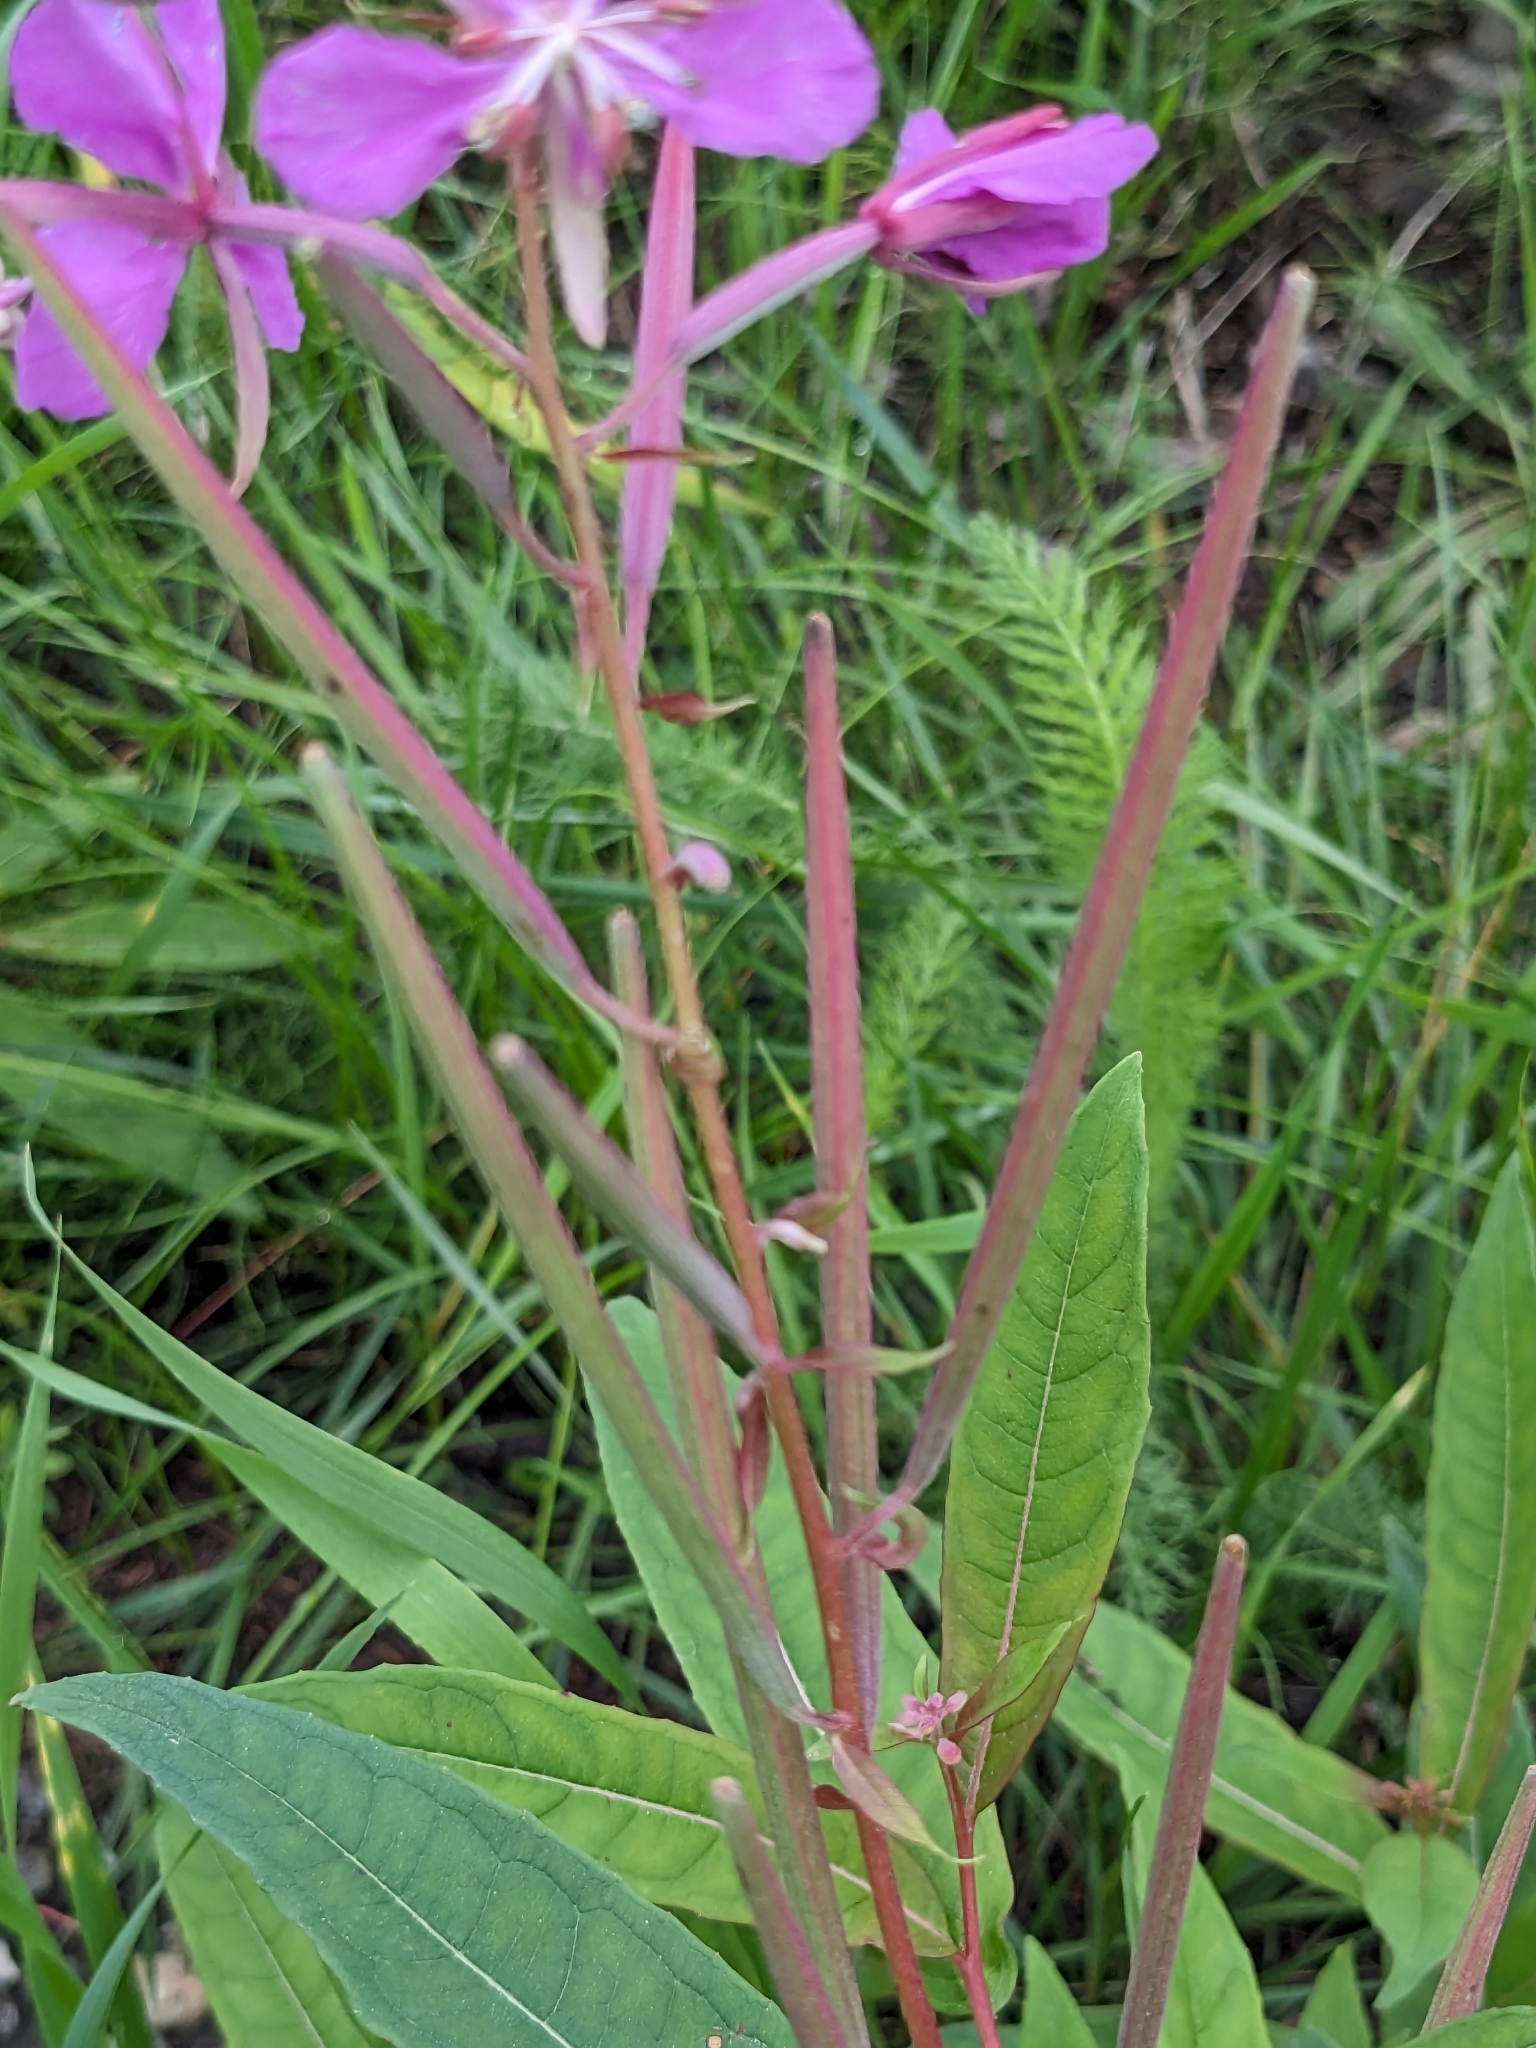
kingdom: Plantae
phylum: Tracheophyta
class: Magnoliopsida
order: Myrtales
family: Onagraceae
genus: Chamaenerion
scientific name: Chamaenerion angustifolium
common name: Fireweed
